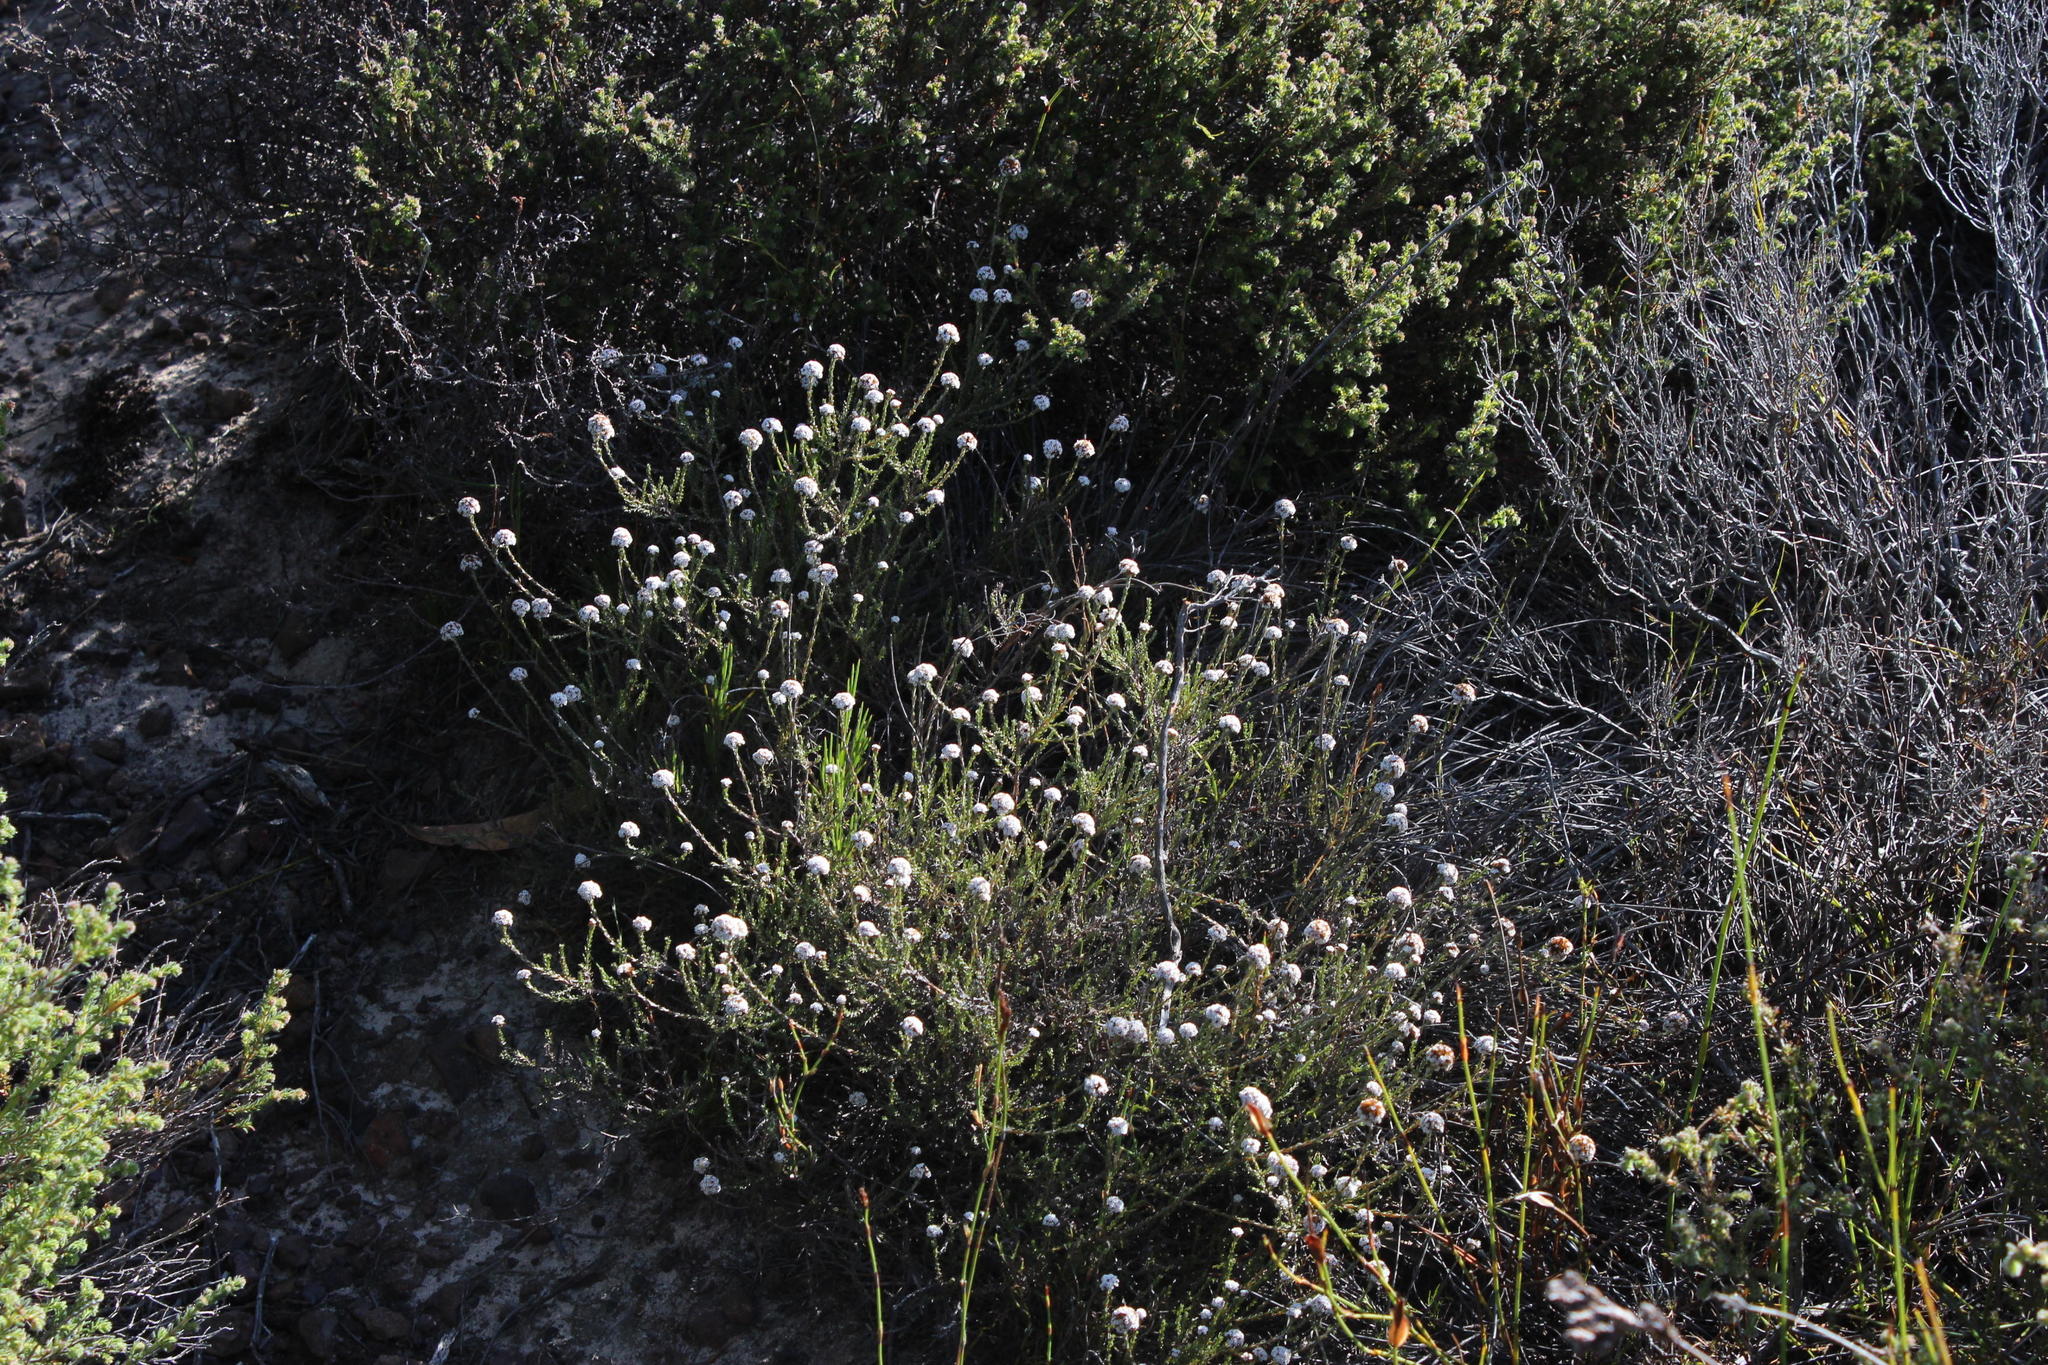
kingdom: Plantae
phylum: Tracheophyta
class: Magnoliopsida
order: Asterales
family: Asteraceae
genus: Stoebe
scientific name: Stoebe capitata
